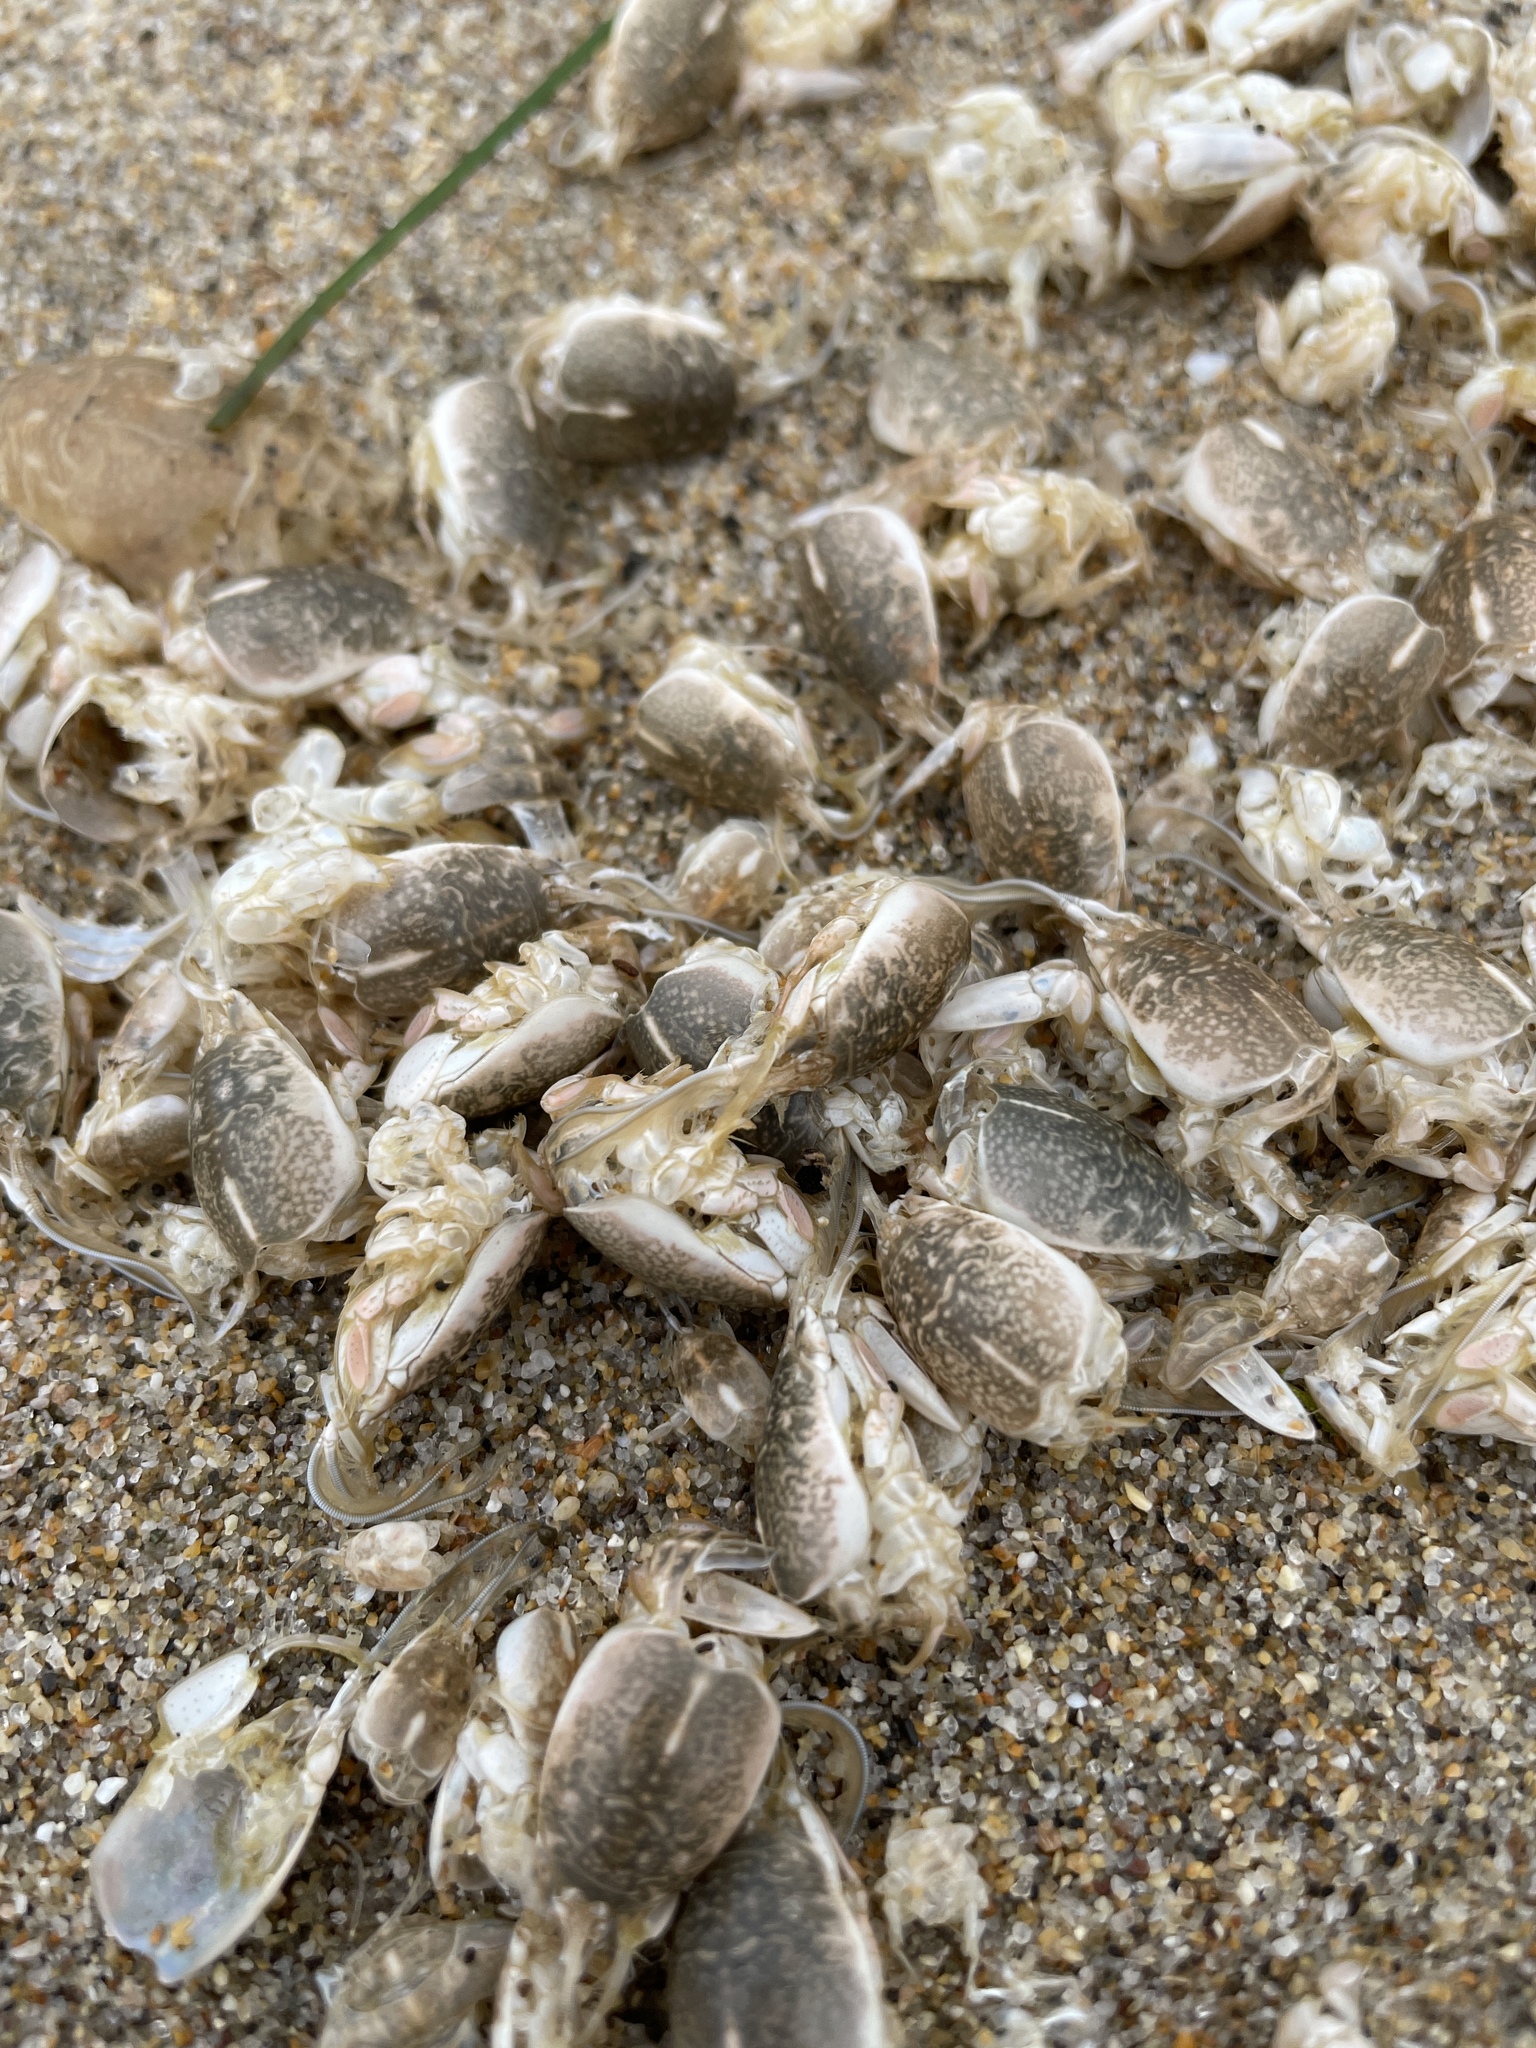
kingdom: Animalia
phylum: Arthropoda
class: Malacostraca
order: Decapoda
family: Hippidae
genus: Emerita
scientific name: Emerita analoga
